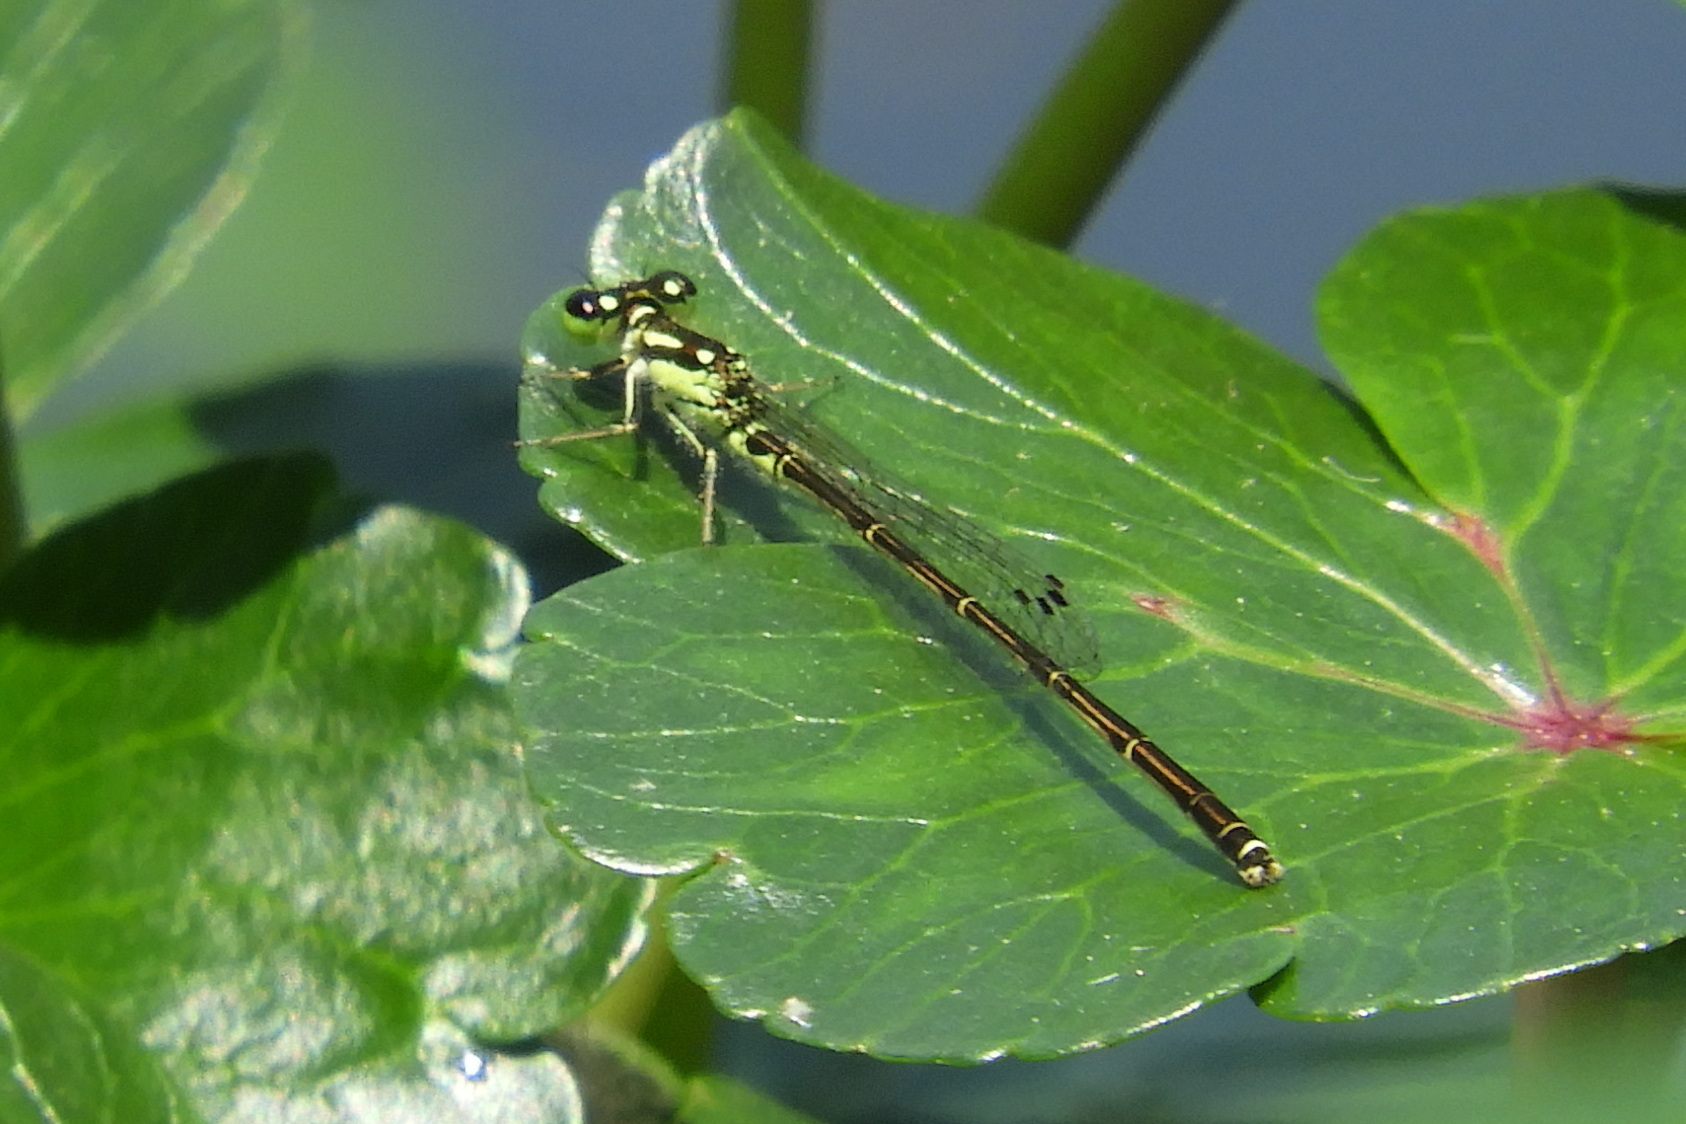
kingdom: Animalia
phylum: Arthropoda
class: Insecta
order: Odonata
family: Coenagrionidae
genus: Ischnura
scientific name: Ischnura posita
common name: Fragile forktail
